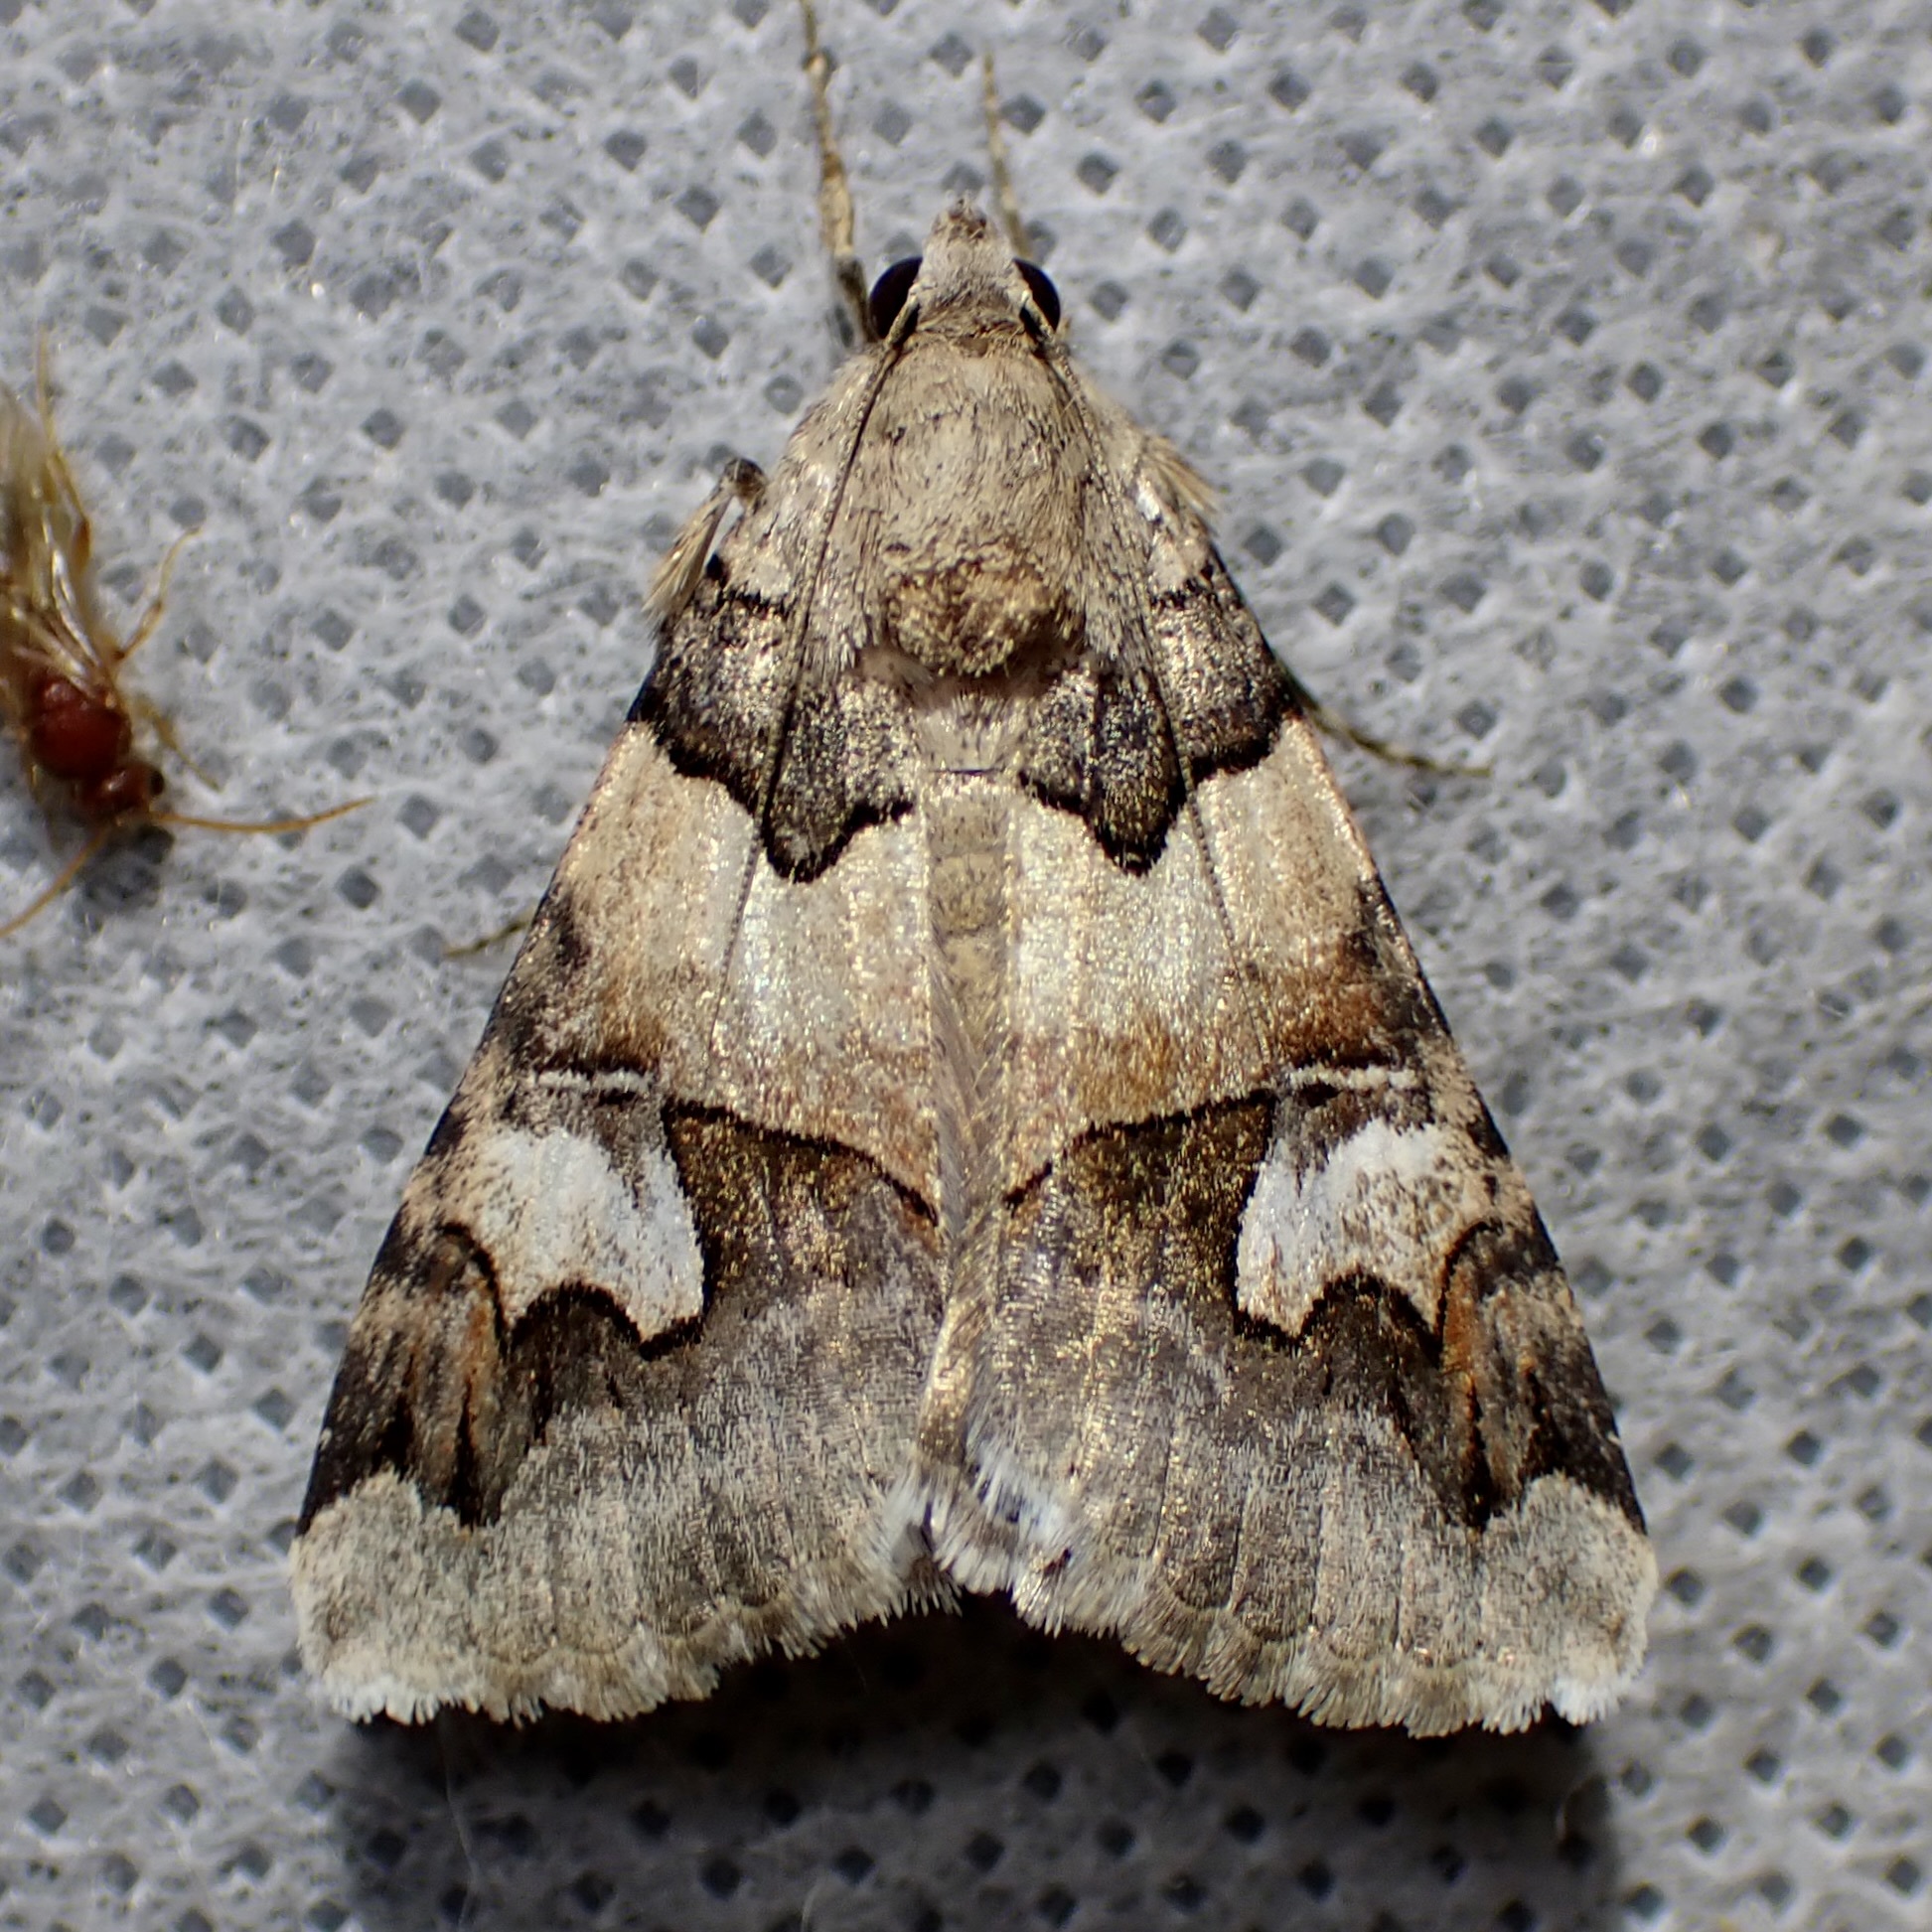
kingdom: Animalia
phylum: Arthropoda
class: Insecta
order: Lepidoptera
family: Erebidae
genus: Drasteria
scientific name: Drasteria fumosa
